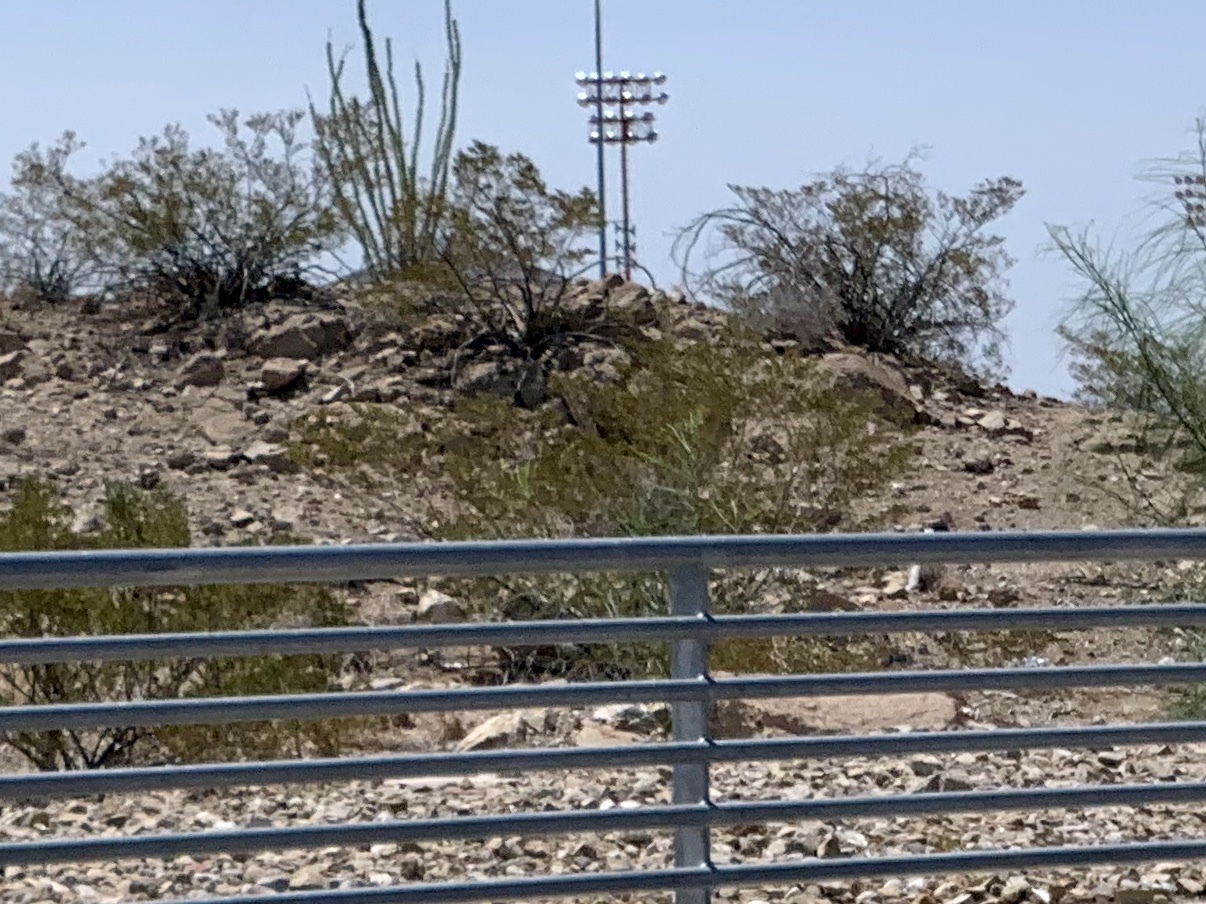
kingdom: Plantae
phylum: Tracheophyta
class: Magnoliopsida
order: Zygophyllales
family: Zygophyllaceae
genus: Larrea
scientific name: Larrea tridentata
